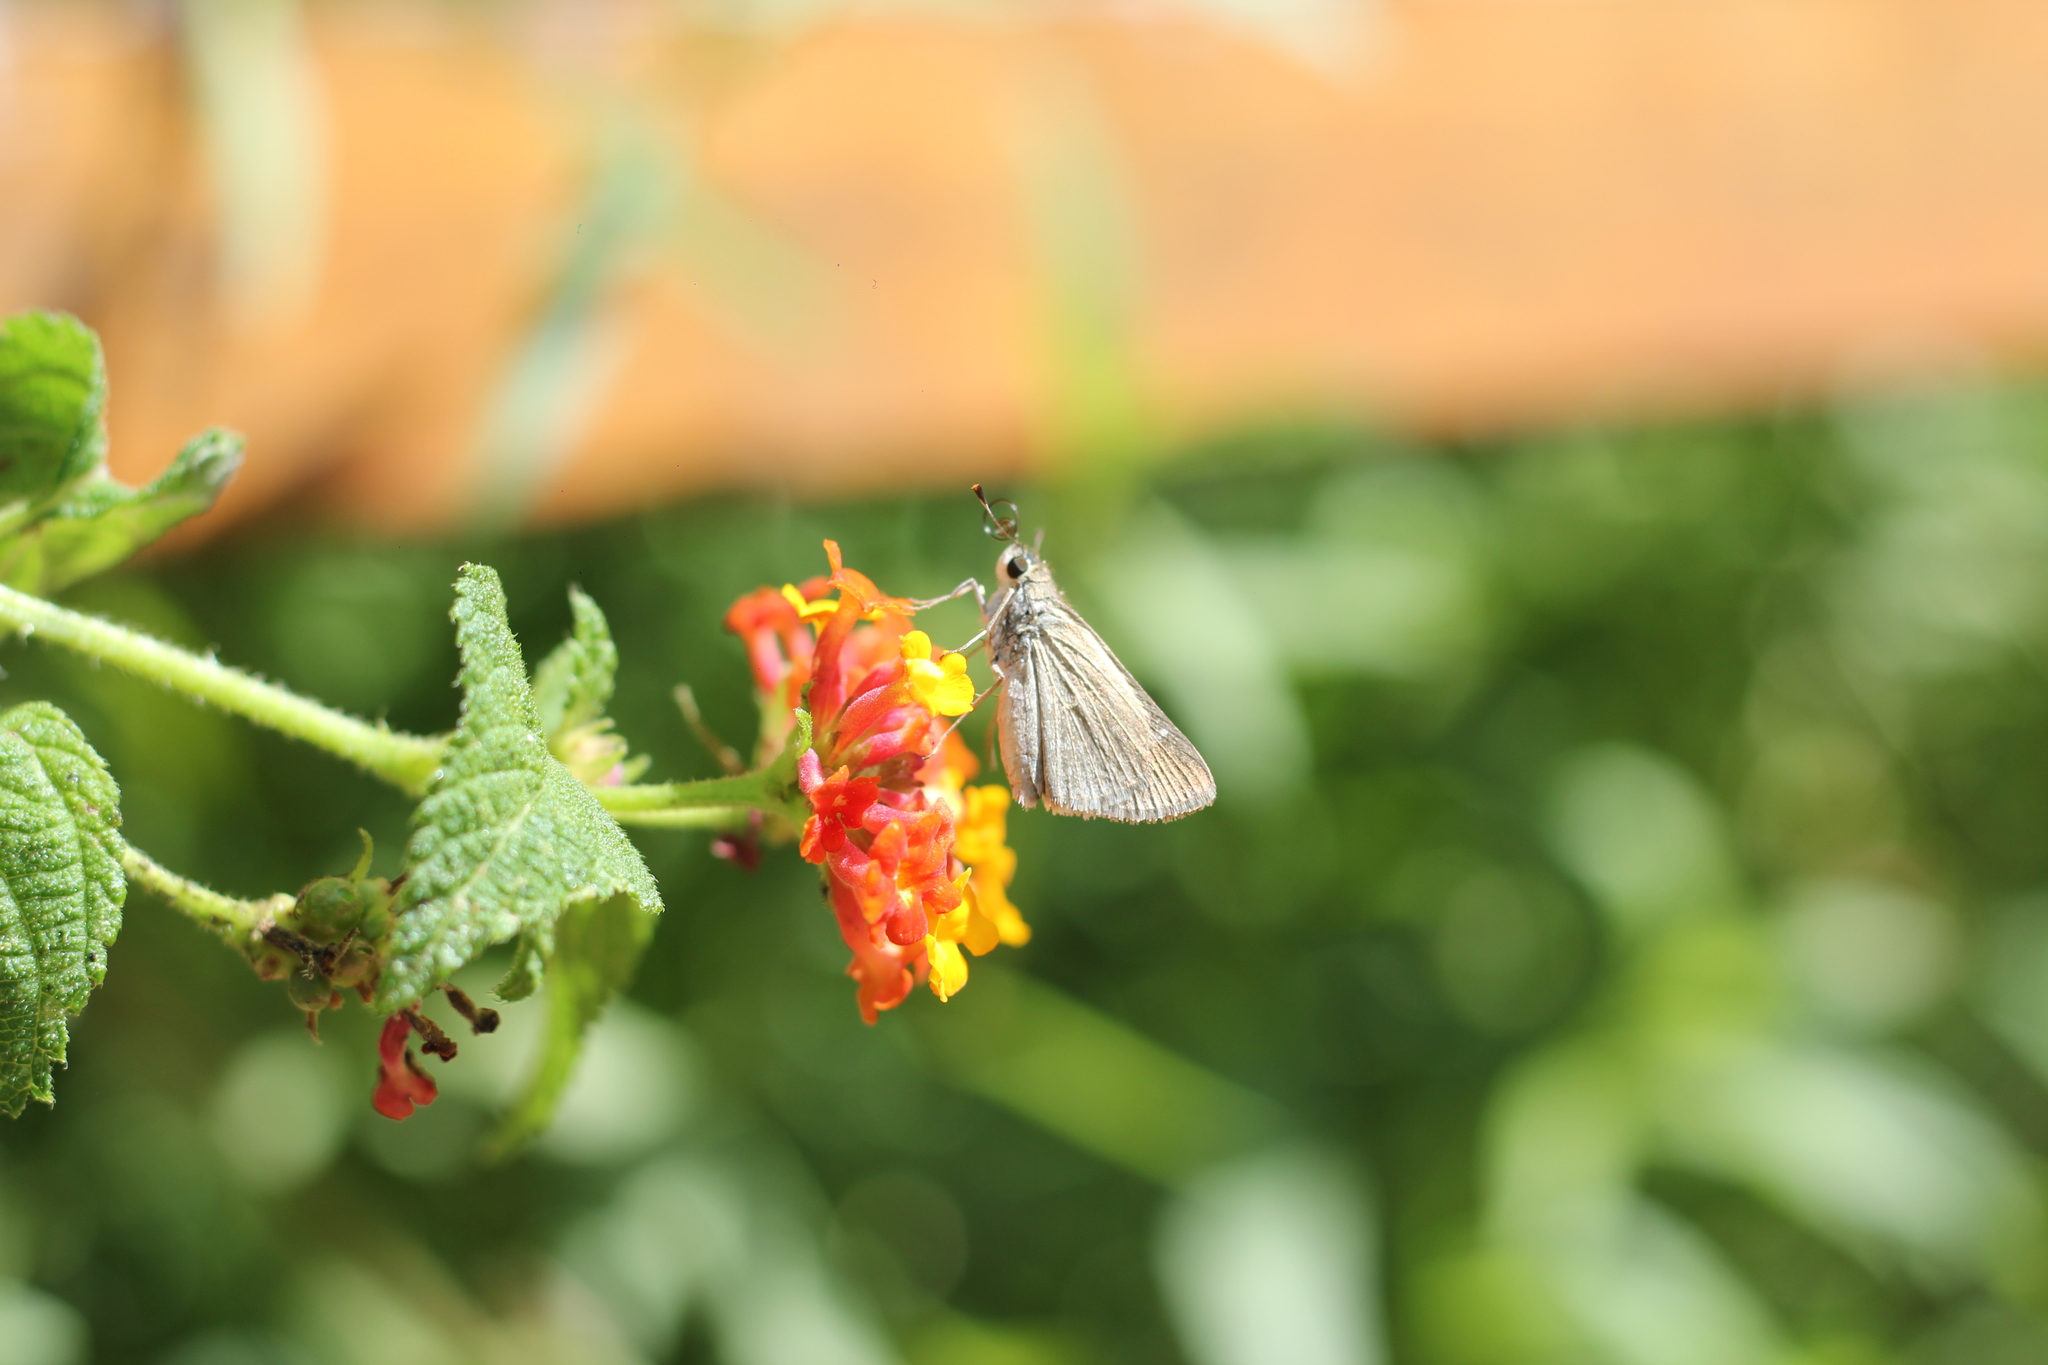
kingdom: Animalia
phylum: Arthropoda
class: Insecta
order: Lepidoptera
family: Hesperiidae
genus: Lerodea
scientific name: Lerodea eufala
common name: Eufala skipper
